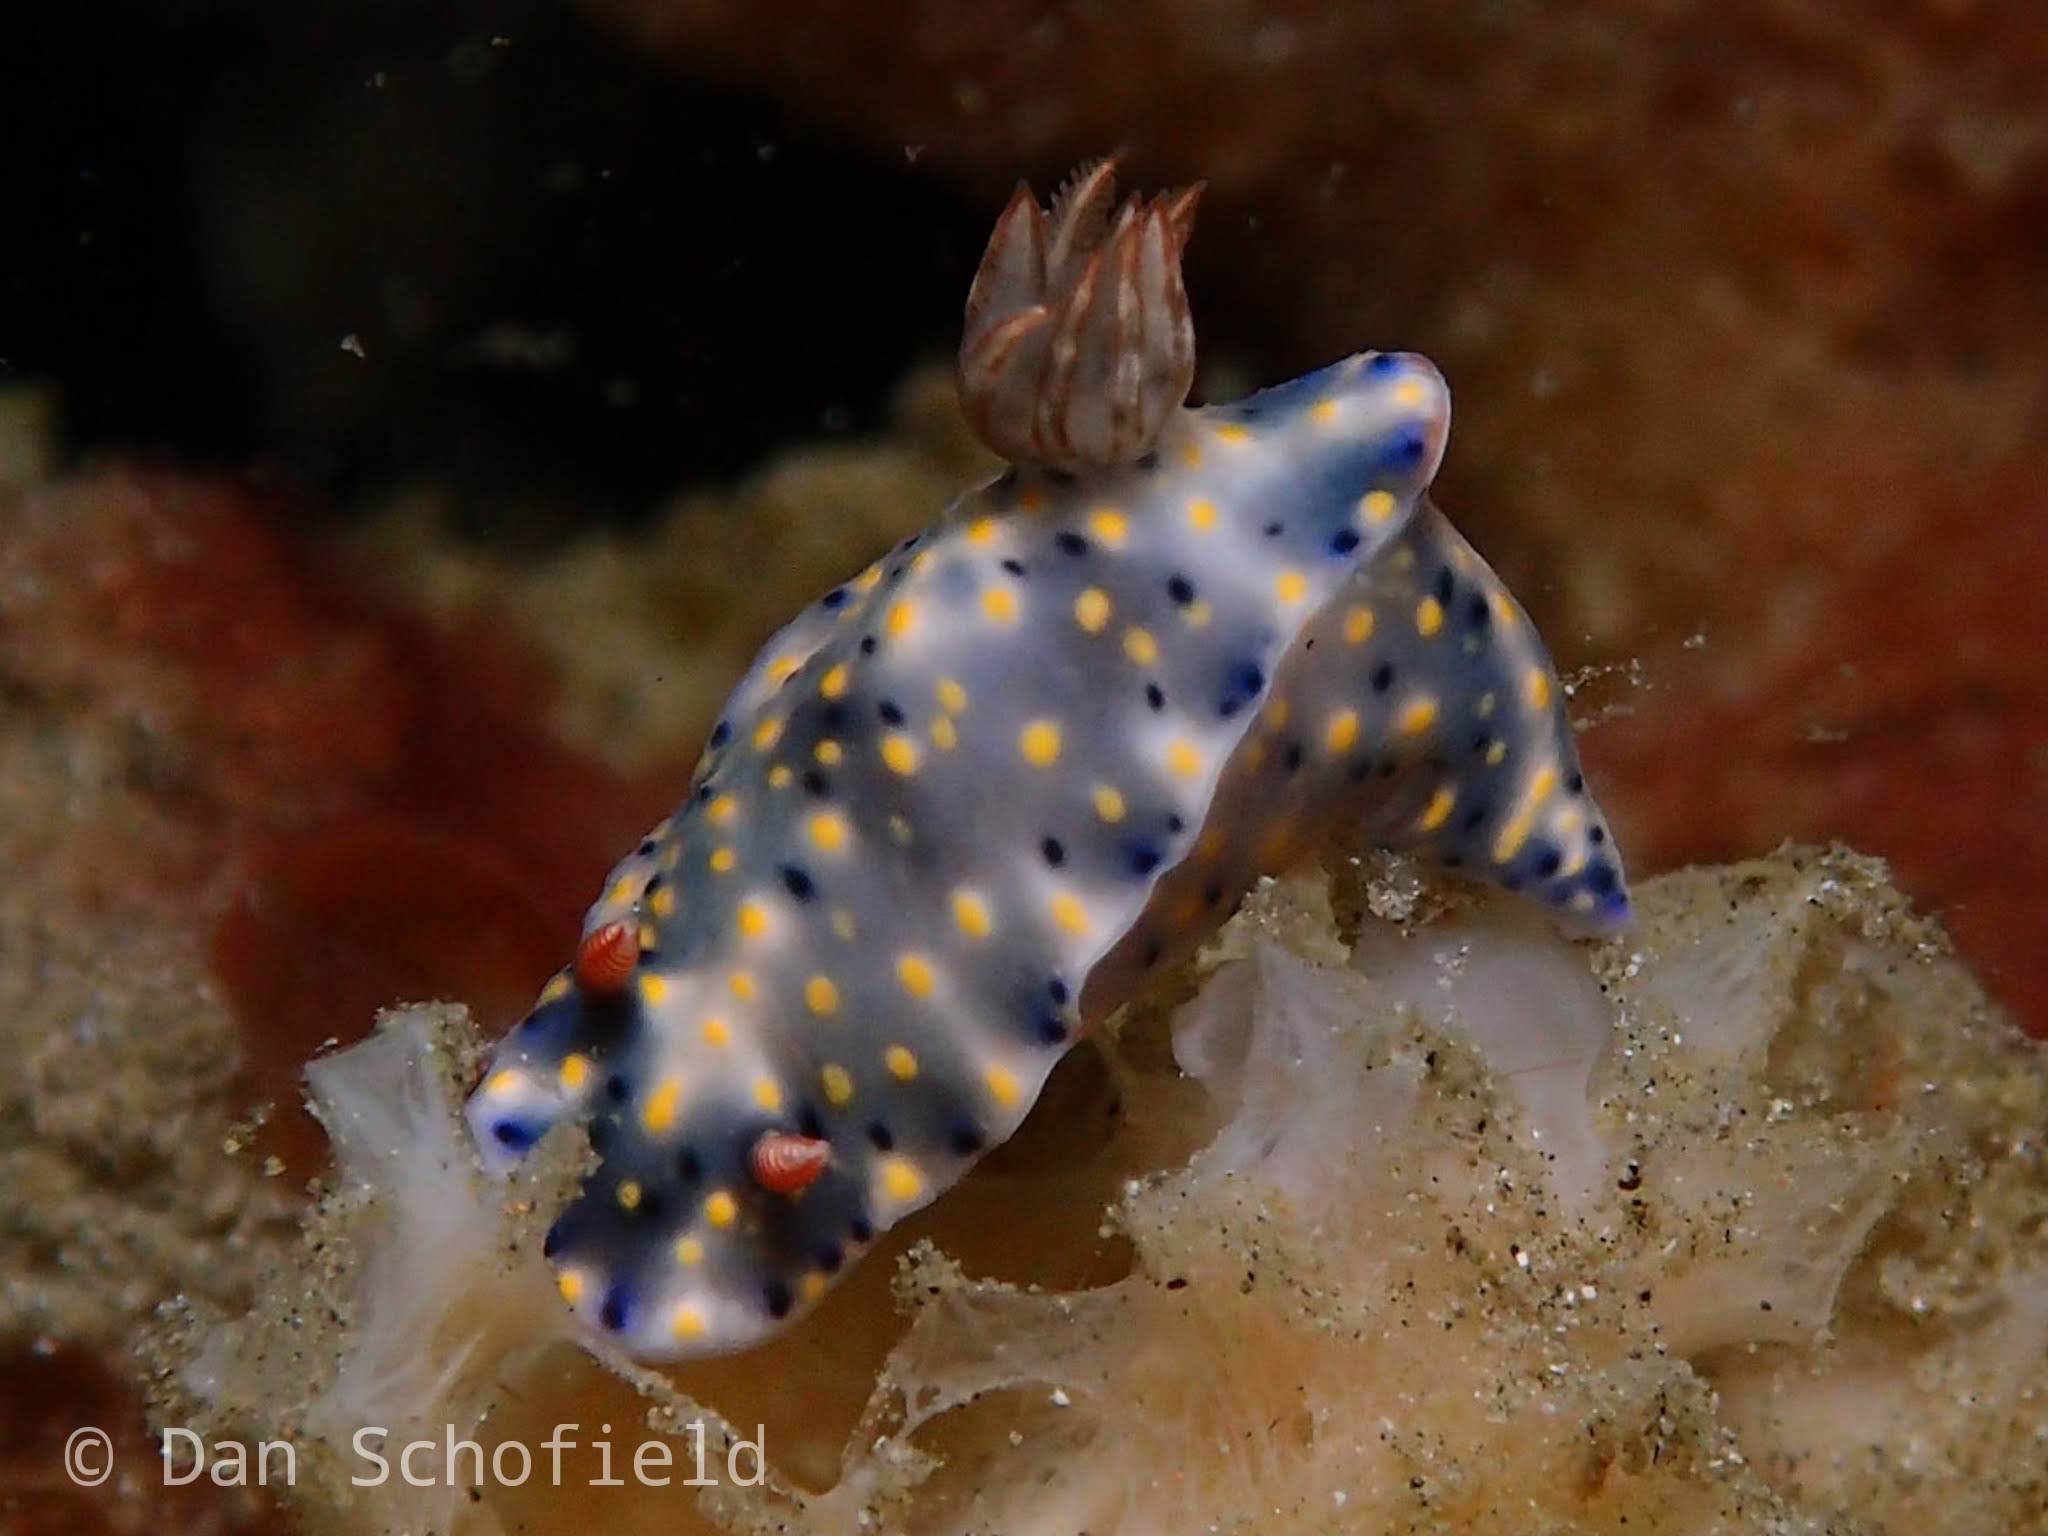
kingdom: Animalia
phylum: Mollusca
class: Gastropoda
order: Nudibranchia
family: Chromodorididae
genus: Hypselodoris
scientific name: Hypselodoris roo
